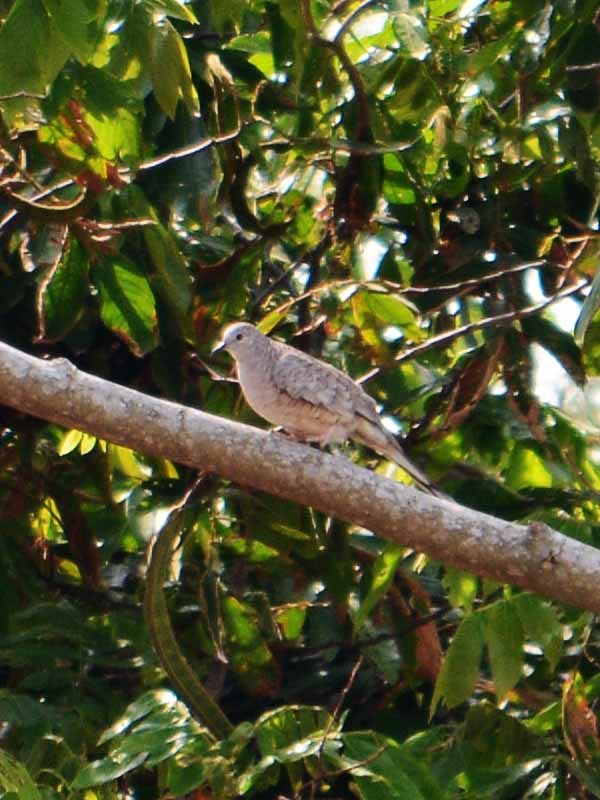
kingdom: Animalia
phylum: Chordata
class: Aves
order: Columbiformes
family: Columbidae
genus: Columbina
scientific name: Columbina inca
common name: Inca dove
